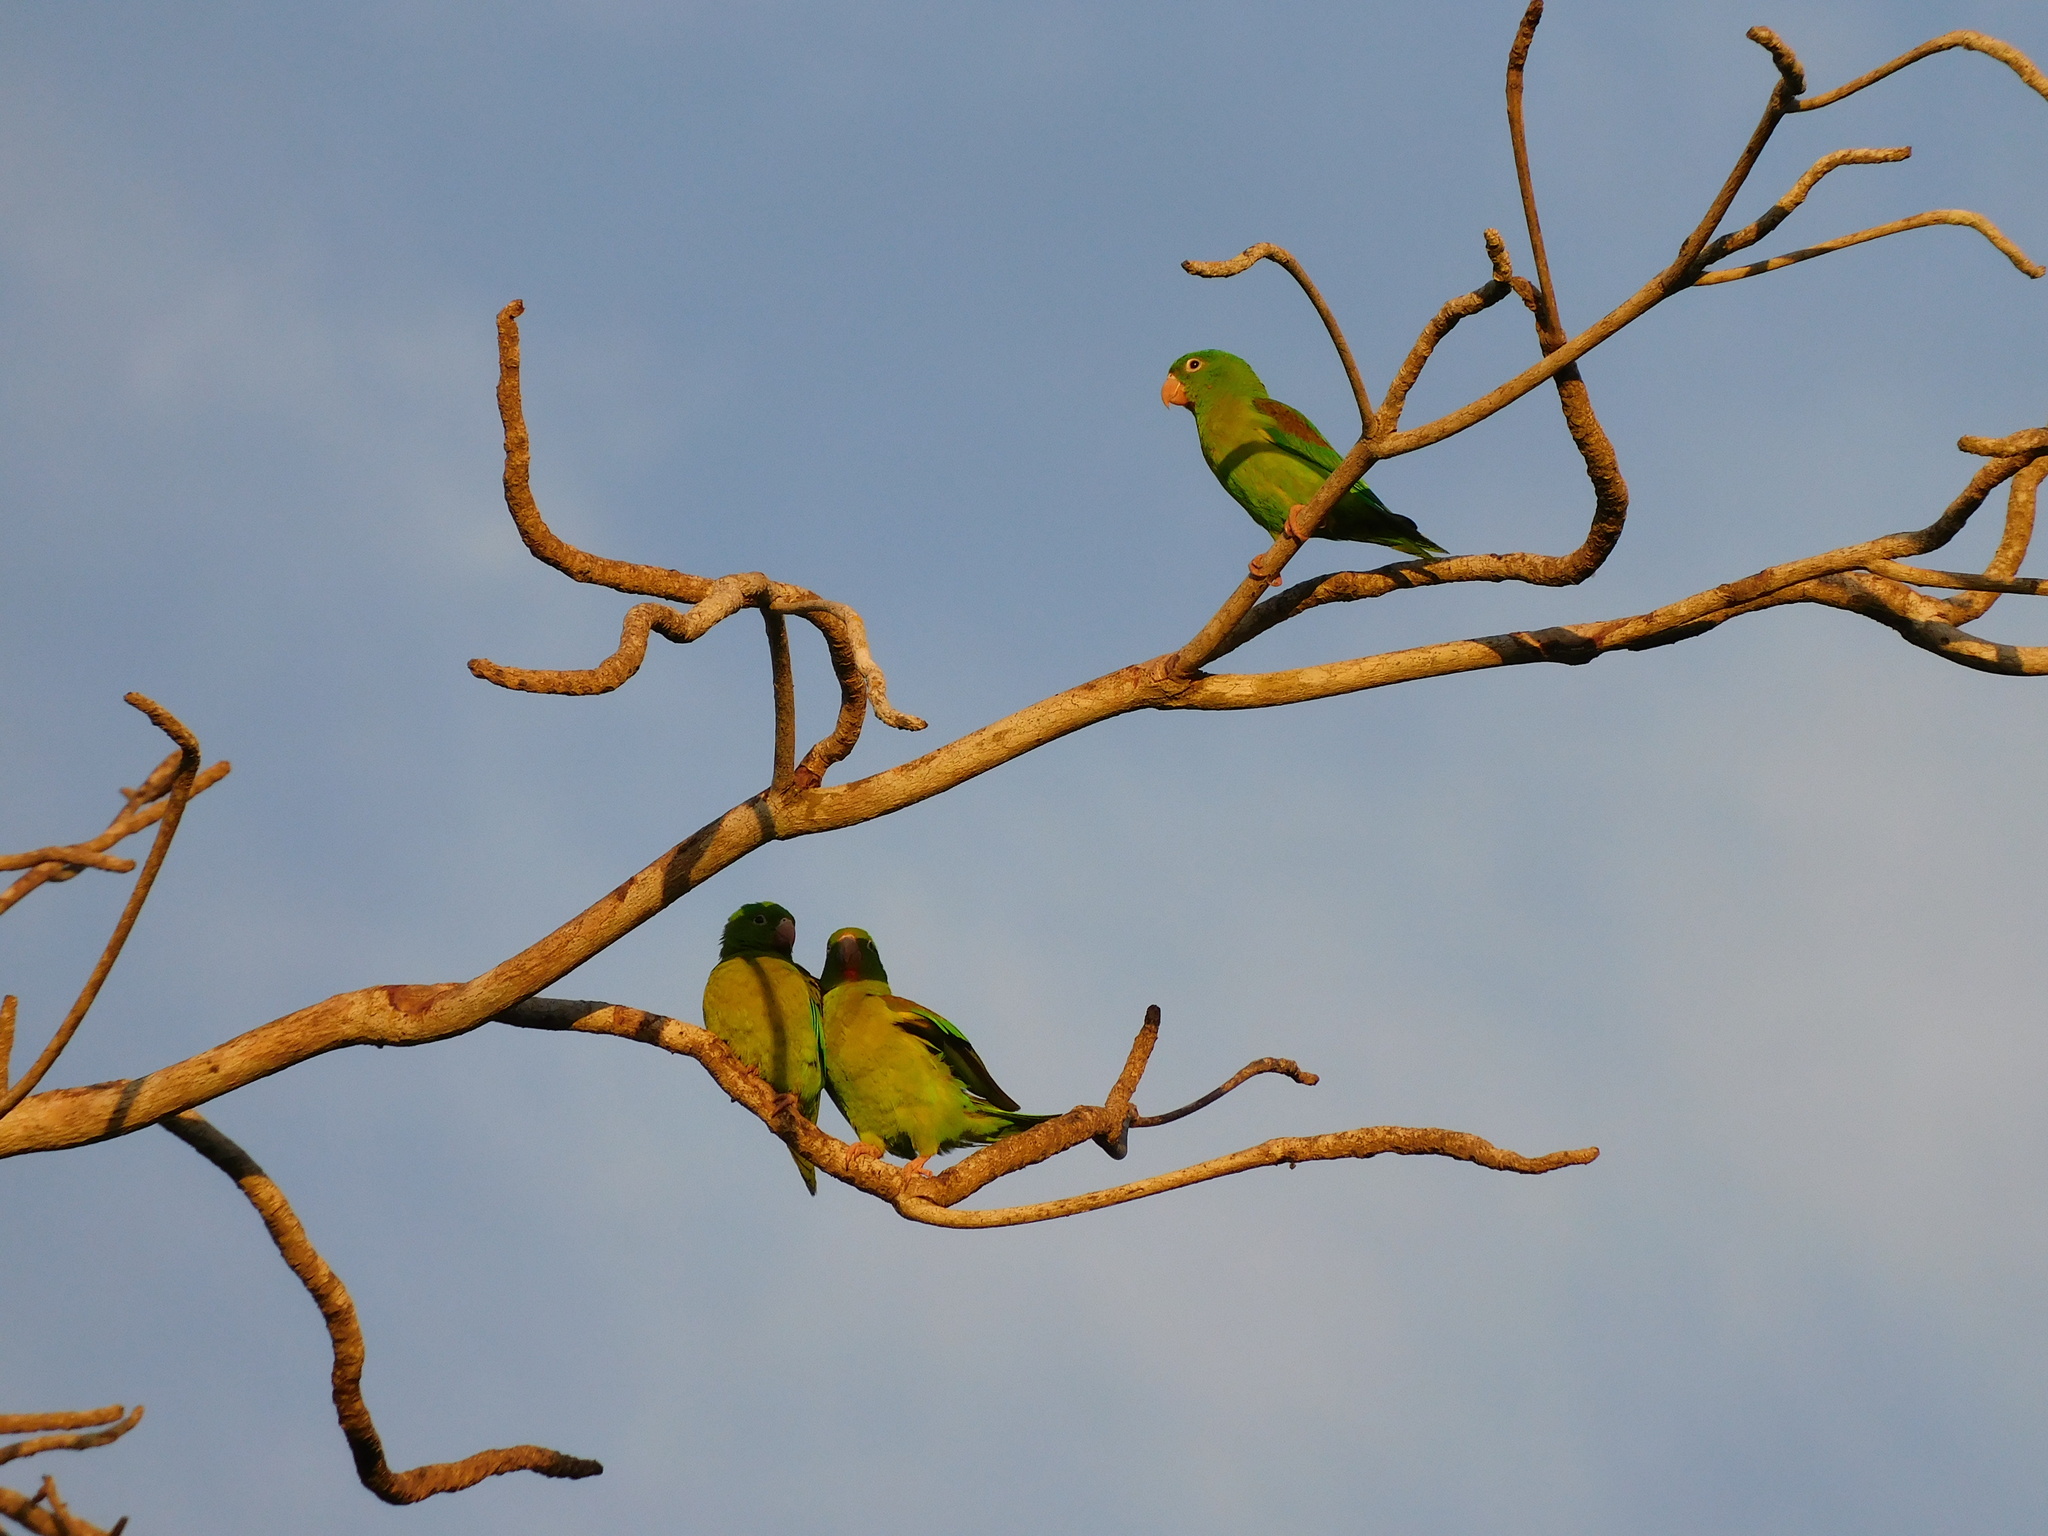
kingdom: Animalia
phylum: Chordata
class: Aves
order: Psittaciformes
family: Psittacidae
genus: Brotogeris
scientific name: Brotogeris jugularis
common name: Orange-chinned parakeet
